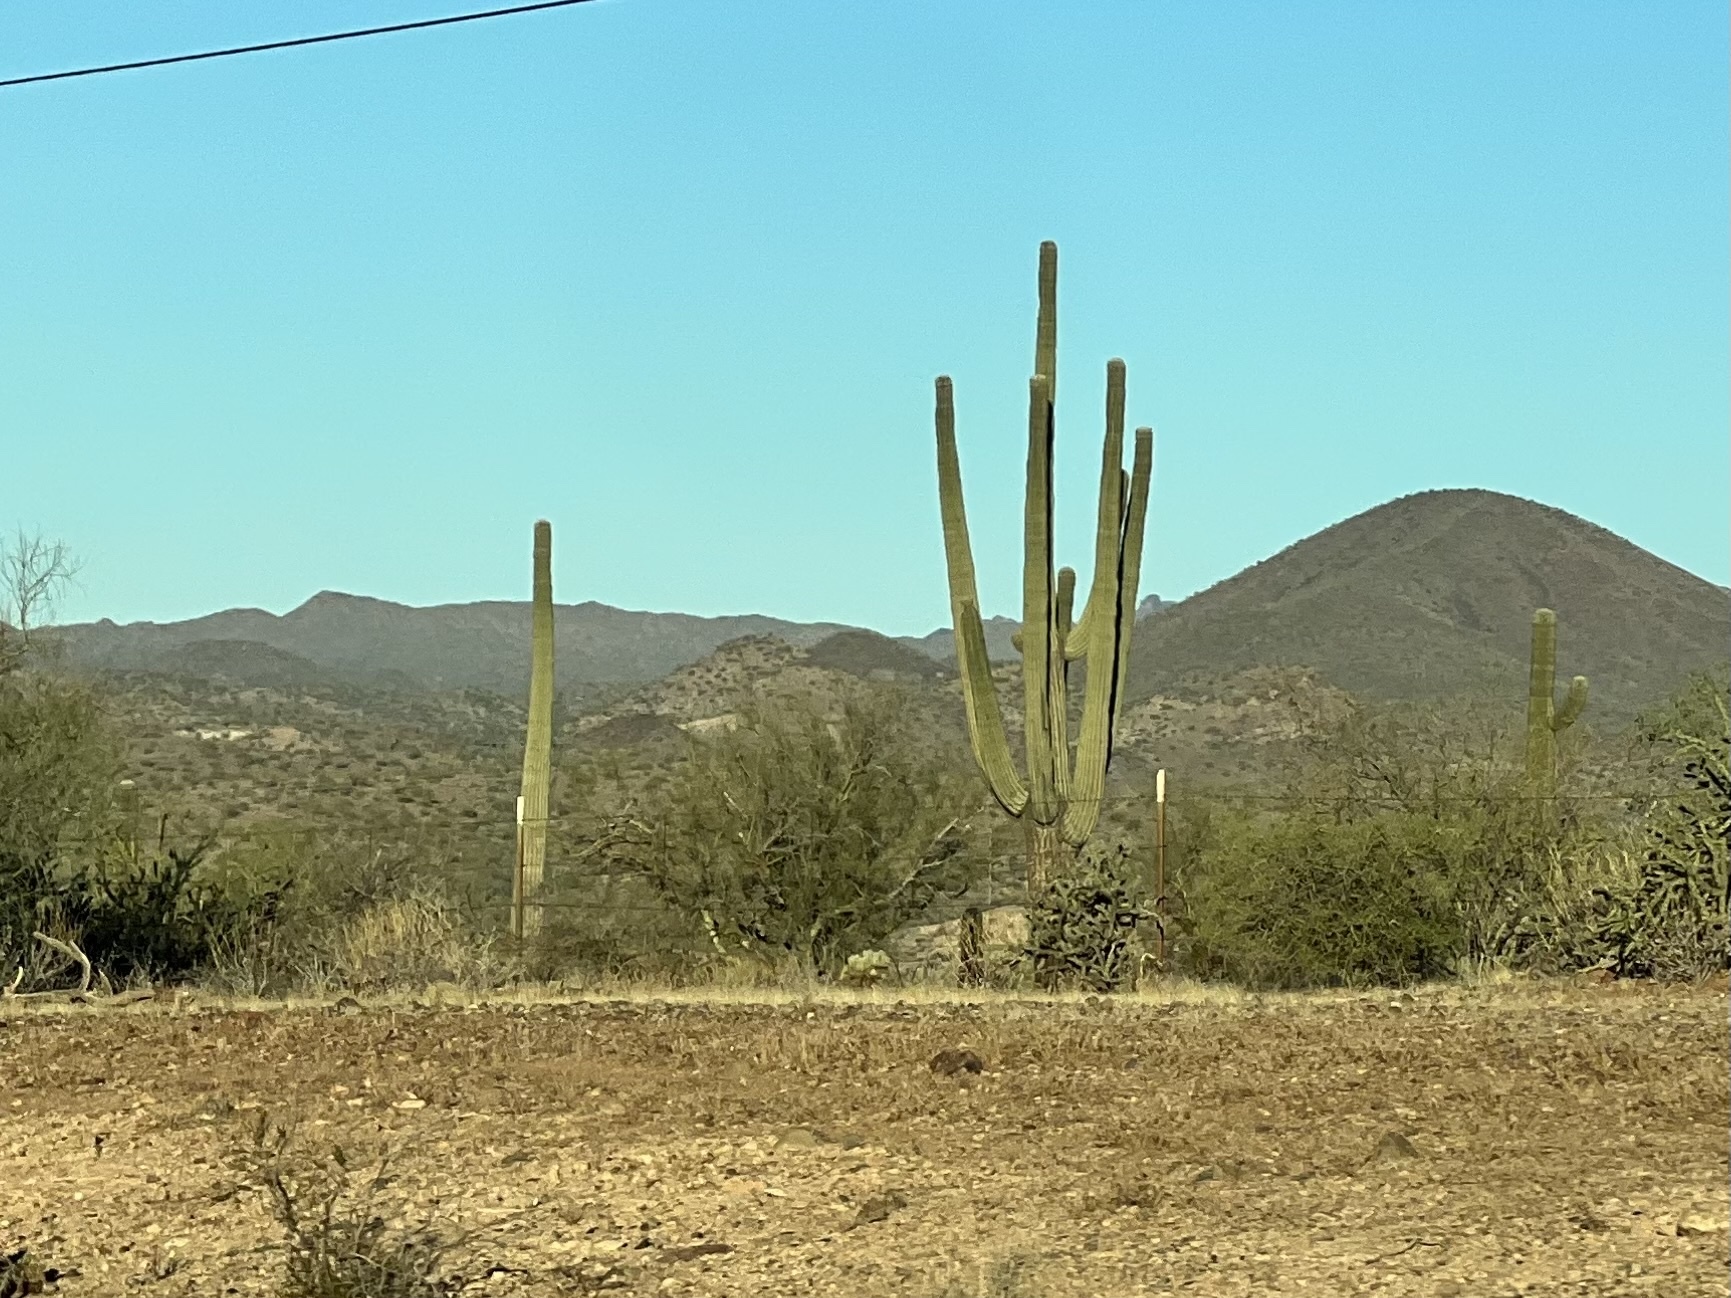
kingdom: Plantae
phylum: Tracheophyta
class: Magnoliopsida
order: Caryophyllales
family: Cactaceae
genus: Carnegiea
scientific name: Carnegiea gigantea
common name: Saguaro
